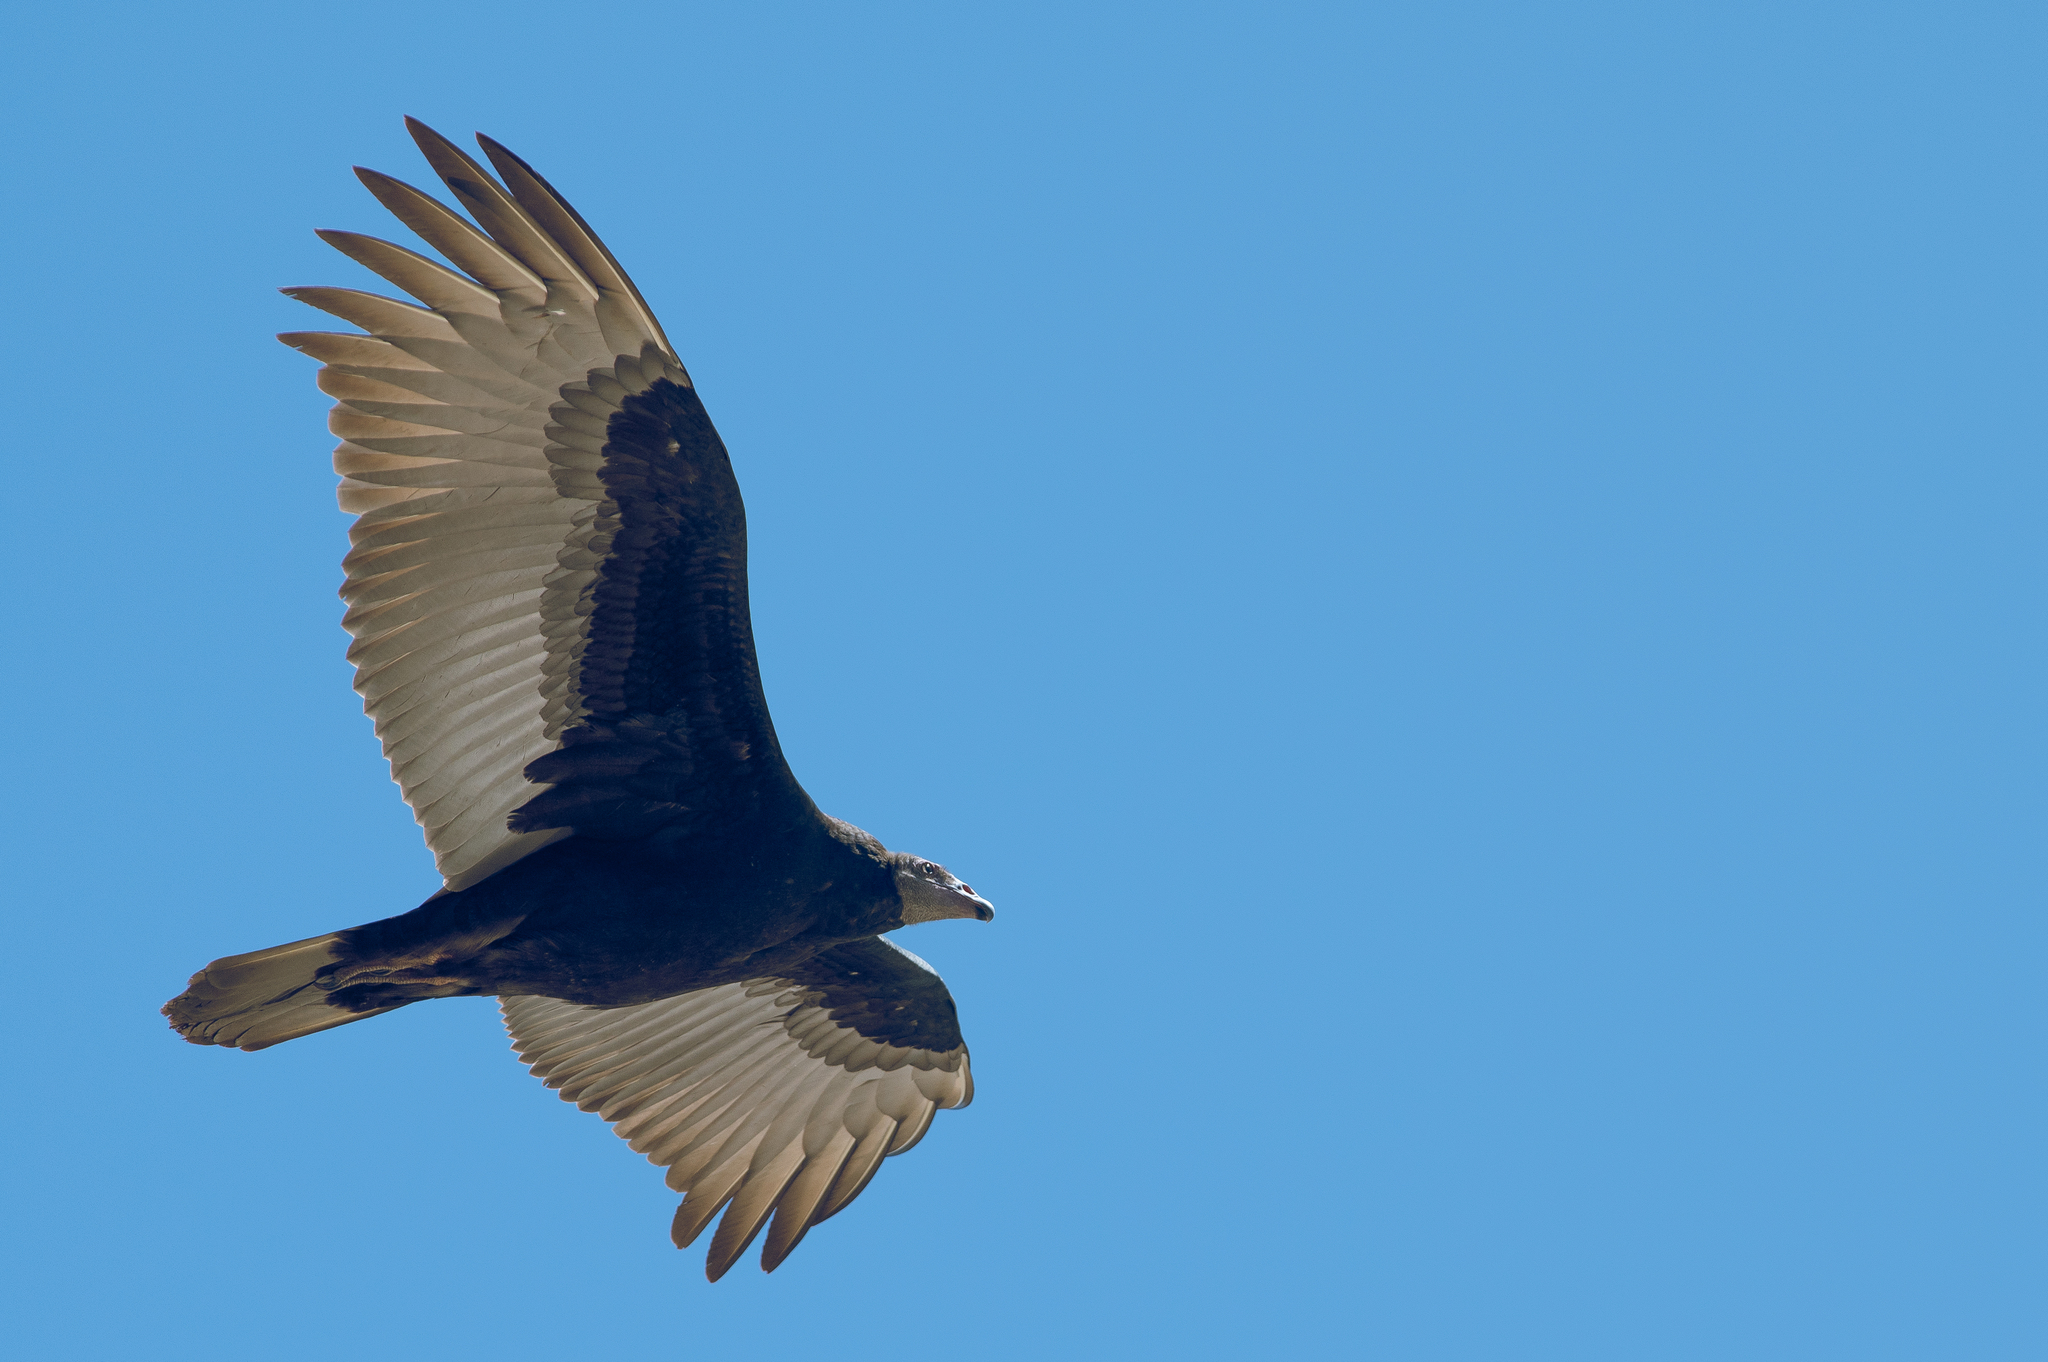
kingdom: Animalia
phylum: Chordata
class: Aves
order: Accipitriformes
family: Cathartidae
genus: Cathartes
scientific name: Cathartes aura
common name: Turkey vulture
